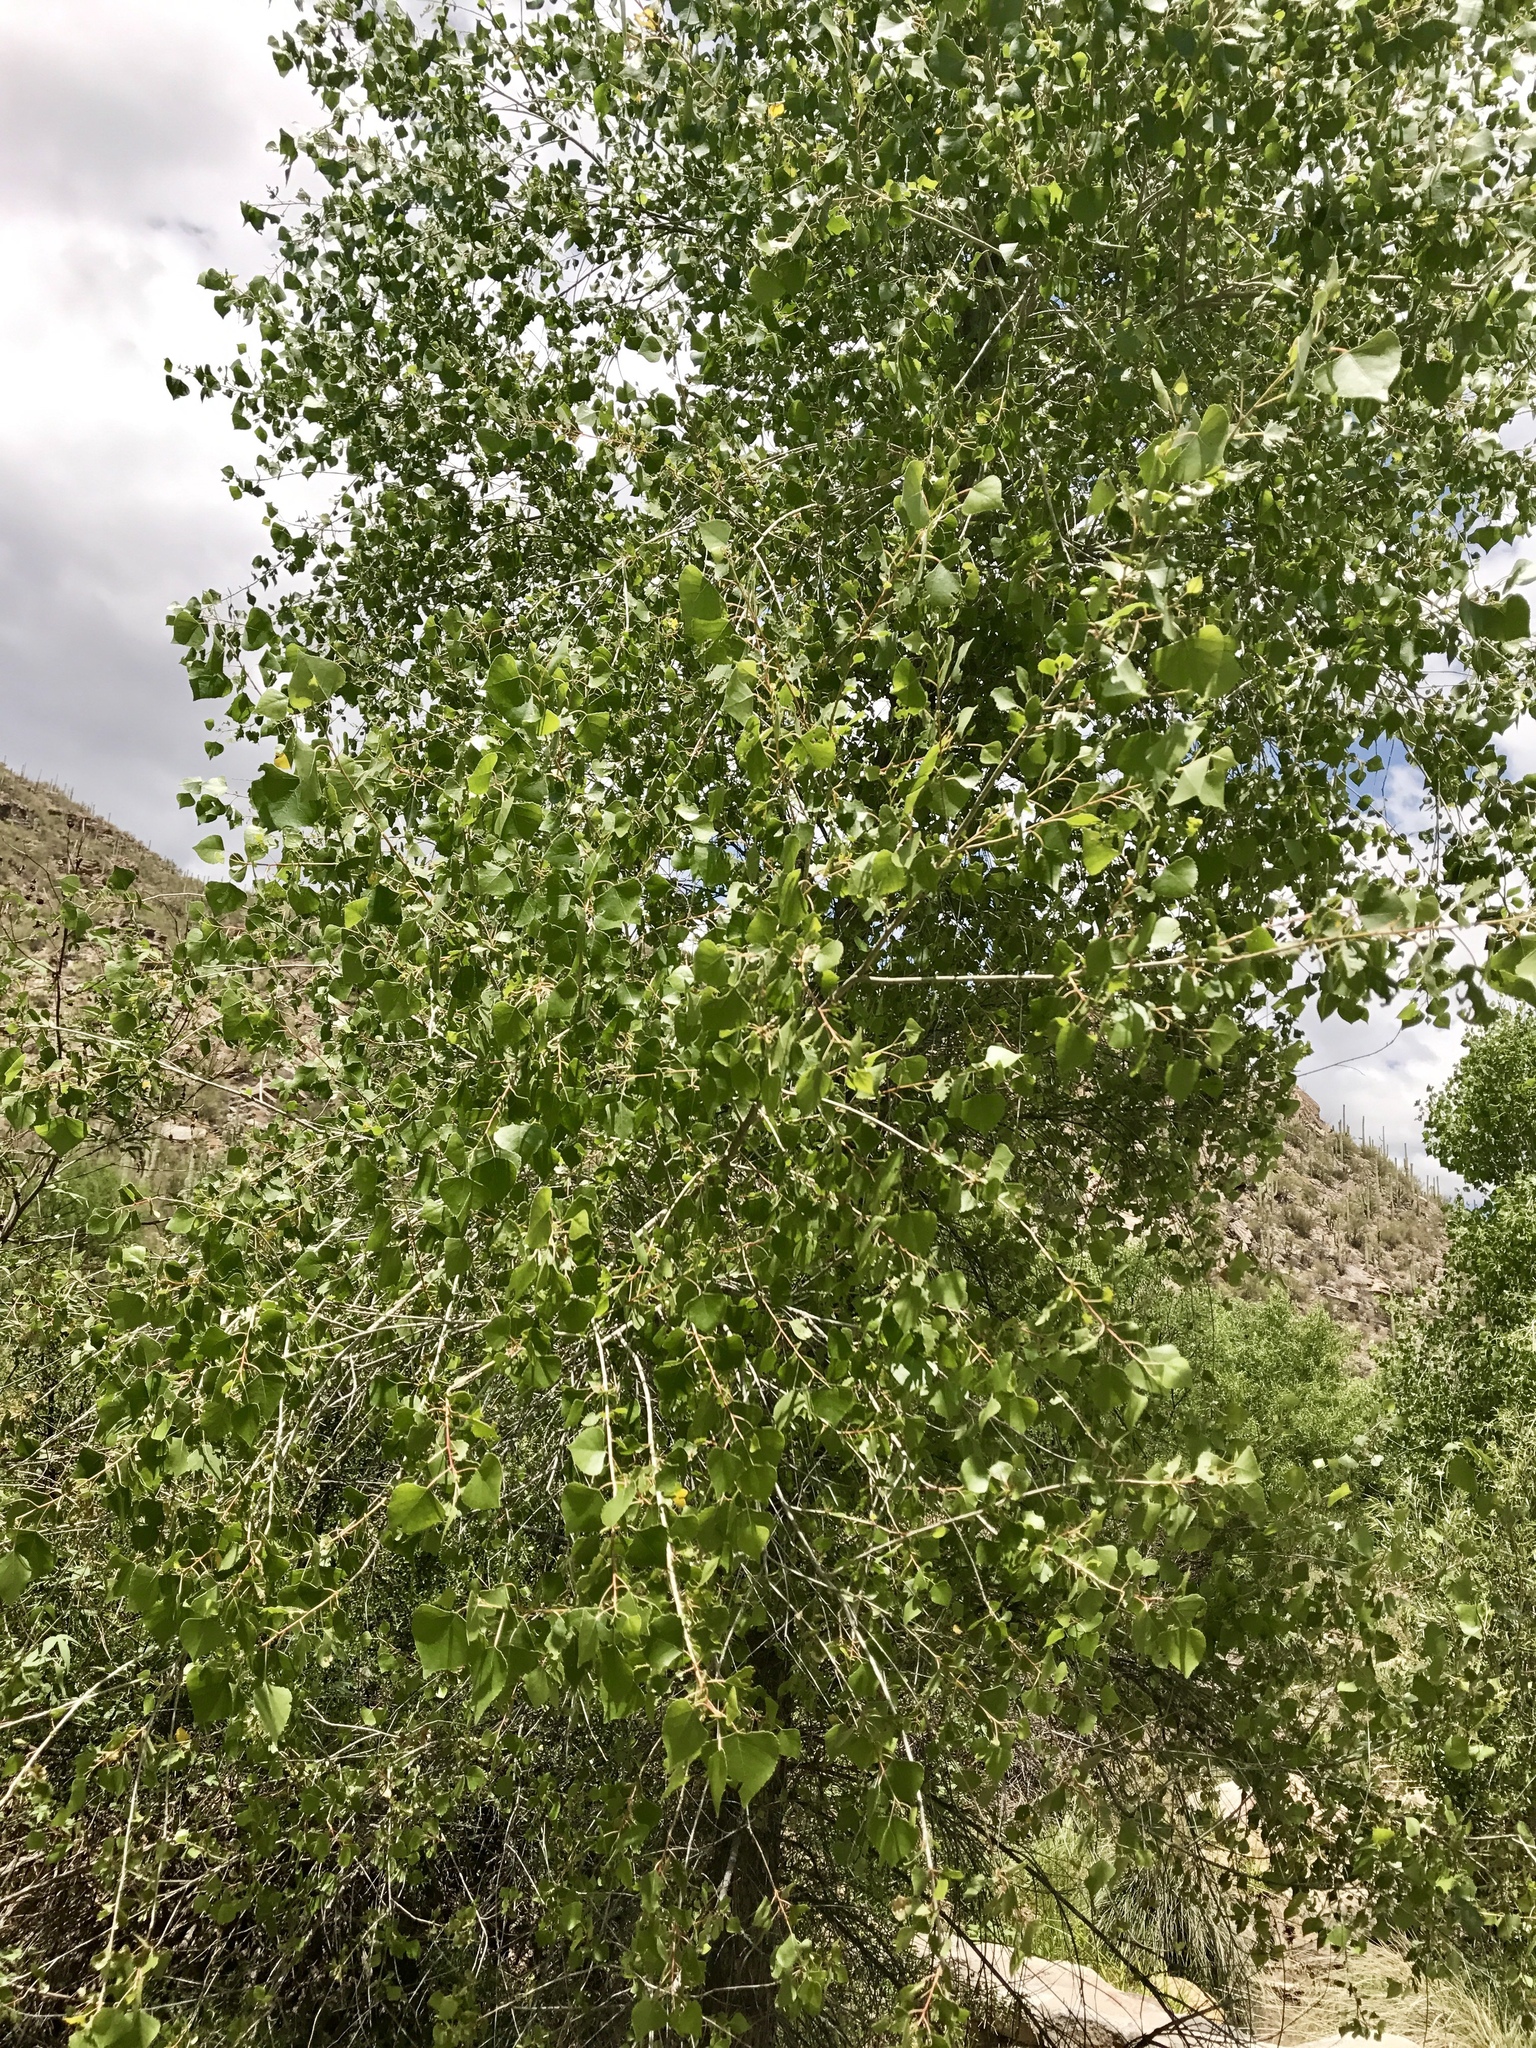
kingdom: Plantae
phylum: Tracheophyta
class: Magnoliopsida
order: Malpighiales
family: Salicaceae
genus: Populus
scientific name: Populus fremontii
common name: Fremont's cottonwood
